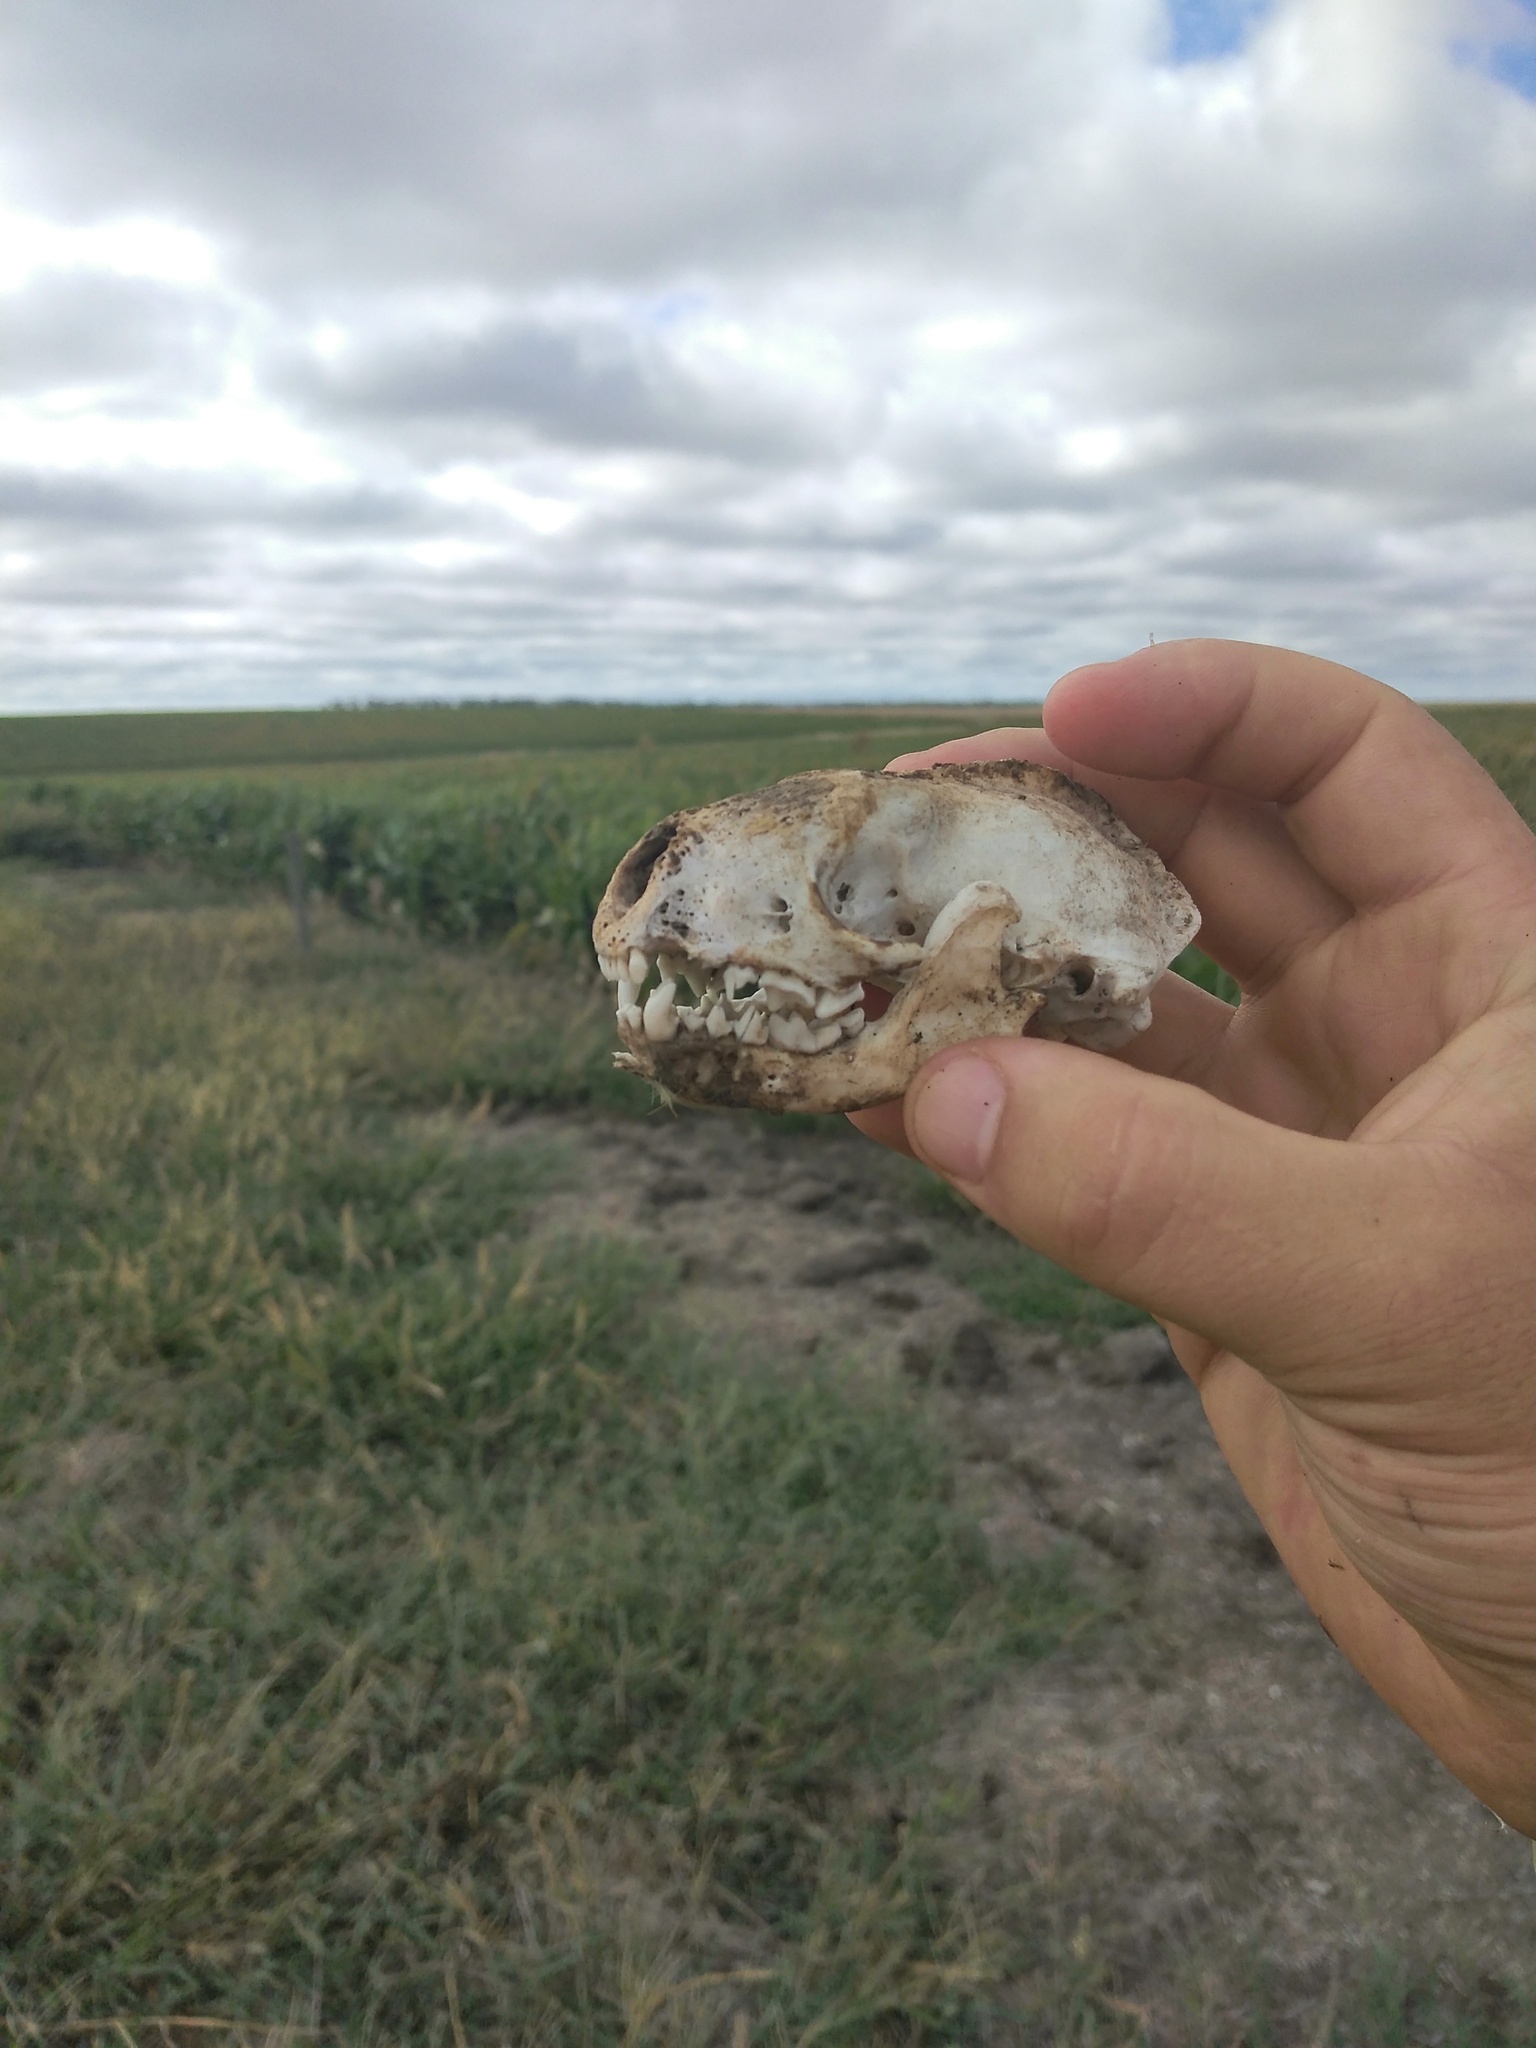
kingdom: Animalia
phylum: Chordata
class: Mammalia
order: Carnivora
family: Mephitidae
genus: Conepatus
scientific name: Conepatus chinga
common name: Molina's hog-nosed skunk
